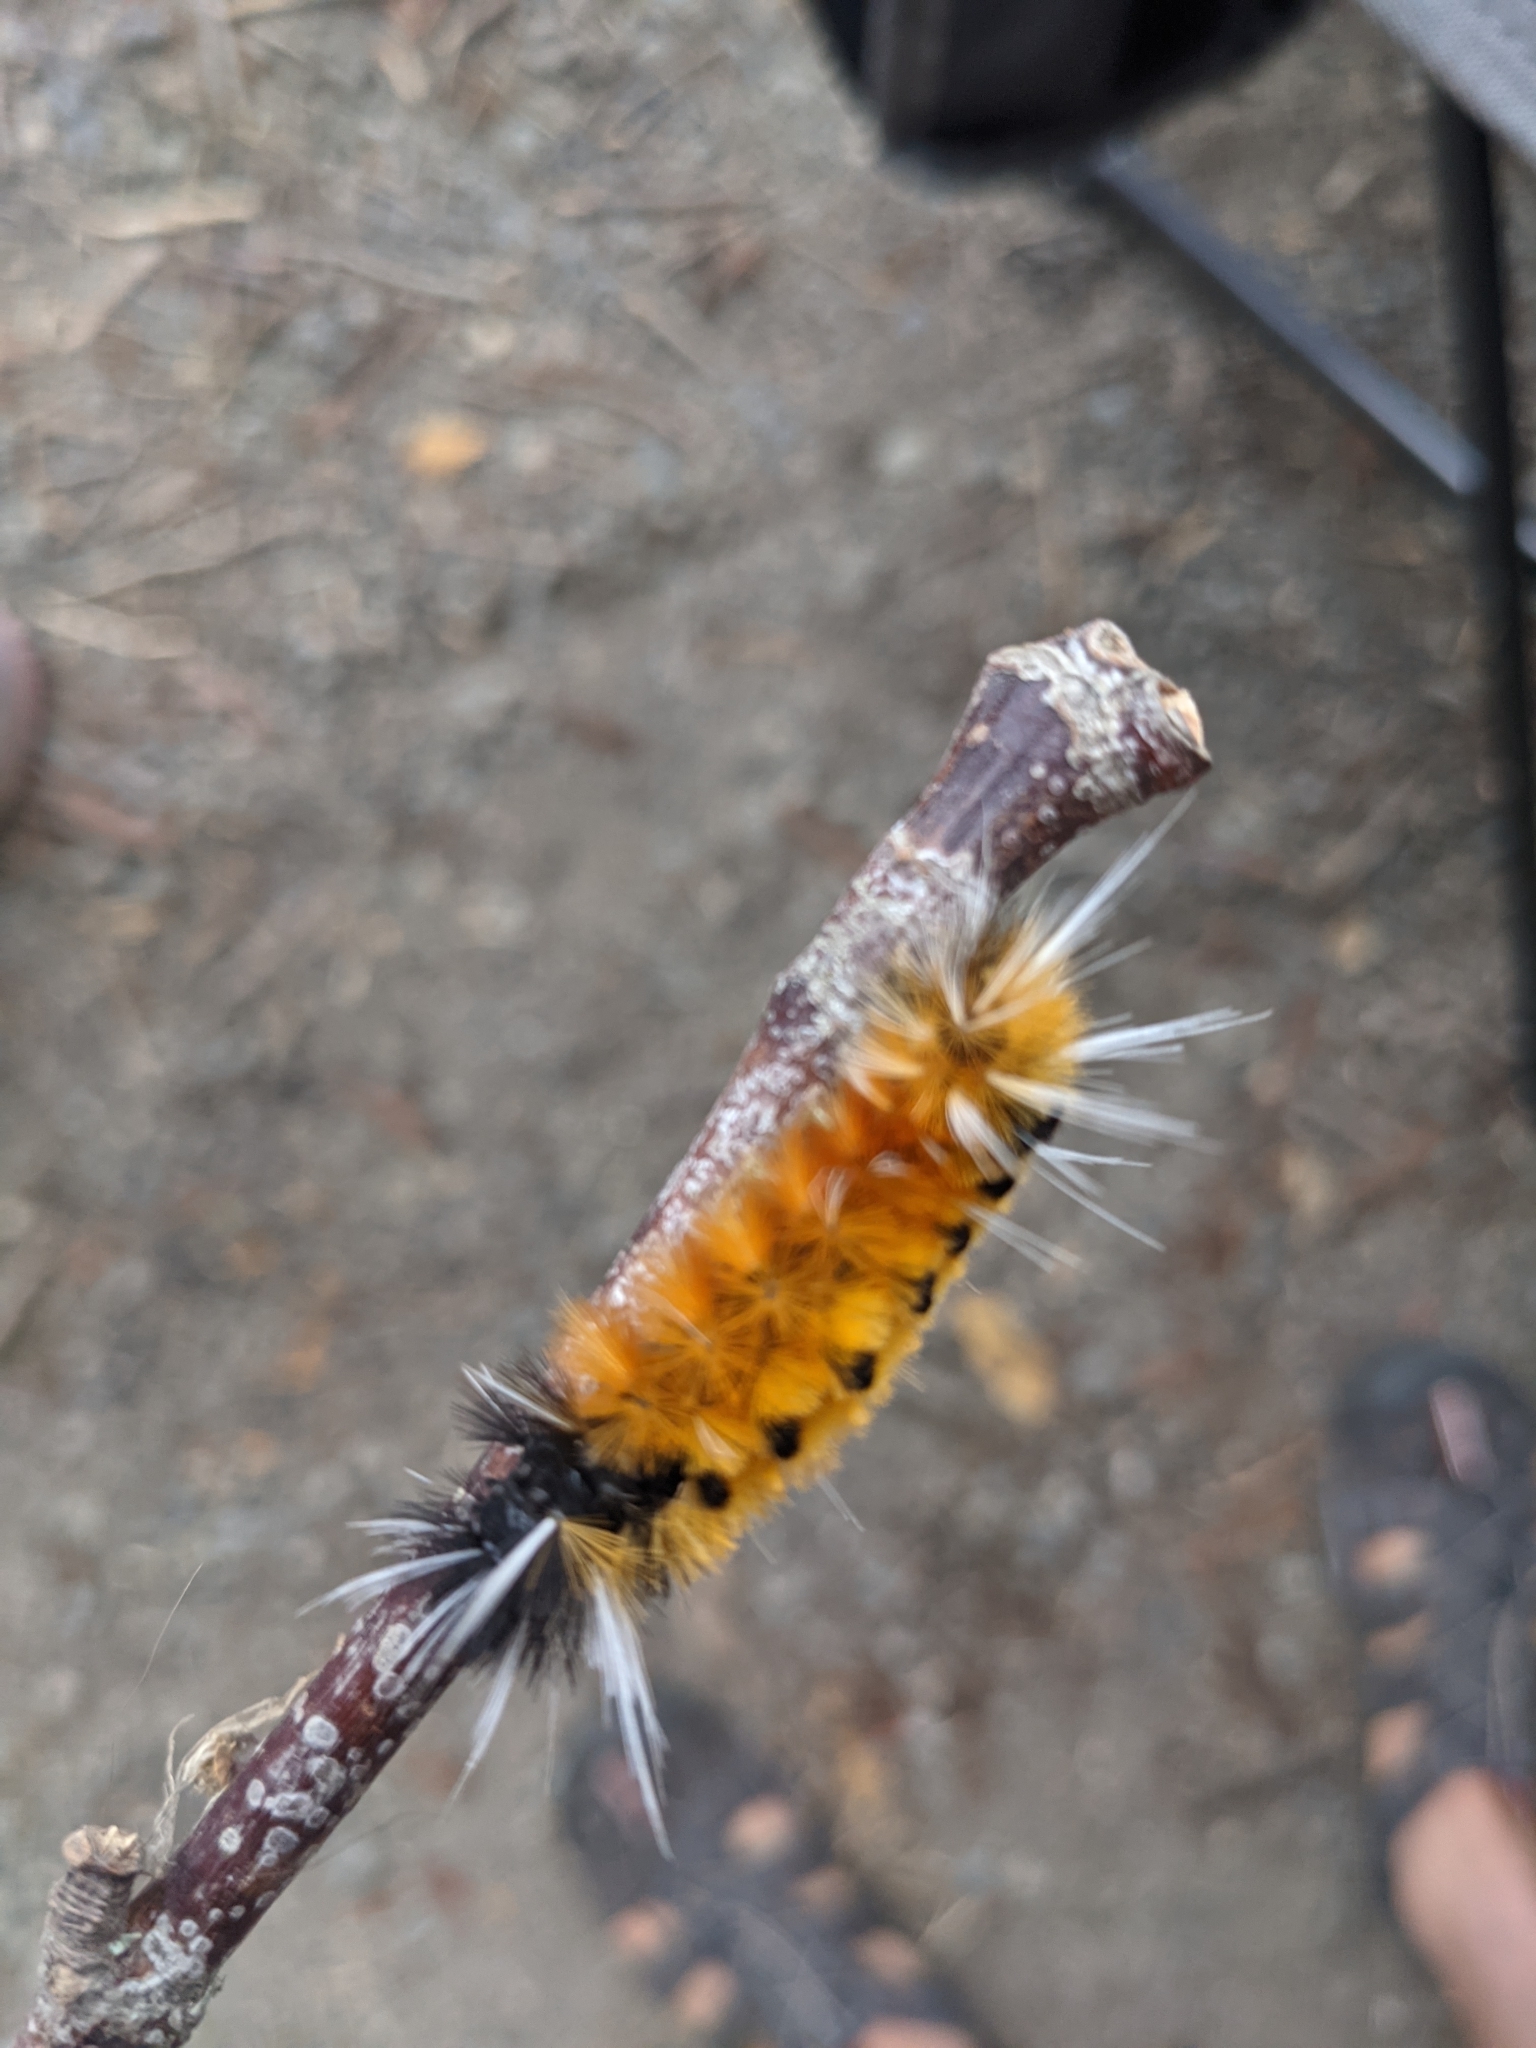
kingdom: Animalia
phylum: Arthropoda
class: Insecta
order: Lepidoptera
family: Erebidae
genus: Lophocampa
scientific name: Lophocampa maculata
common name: Spotted tussock moth
